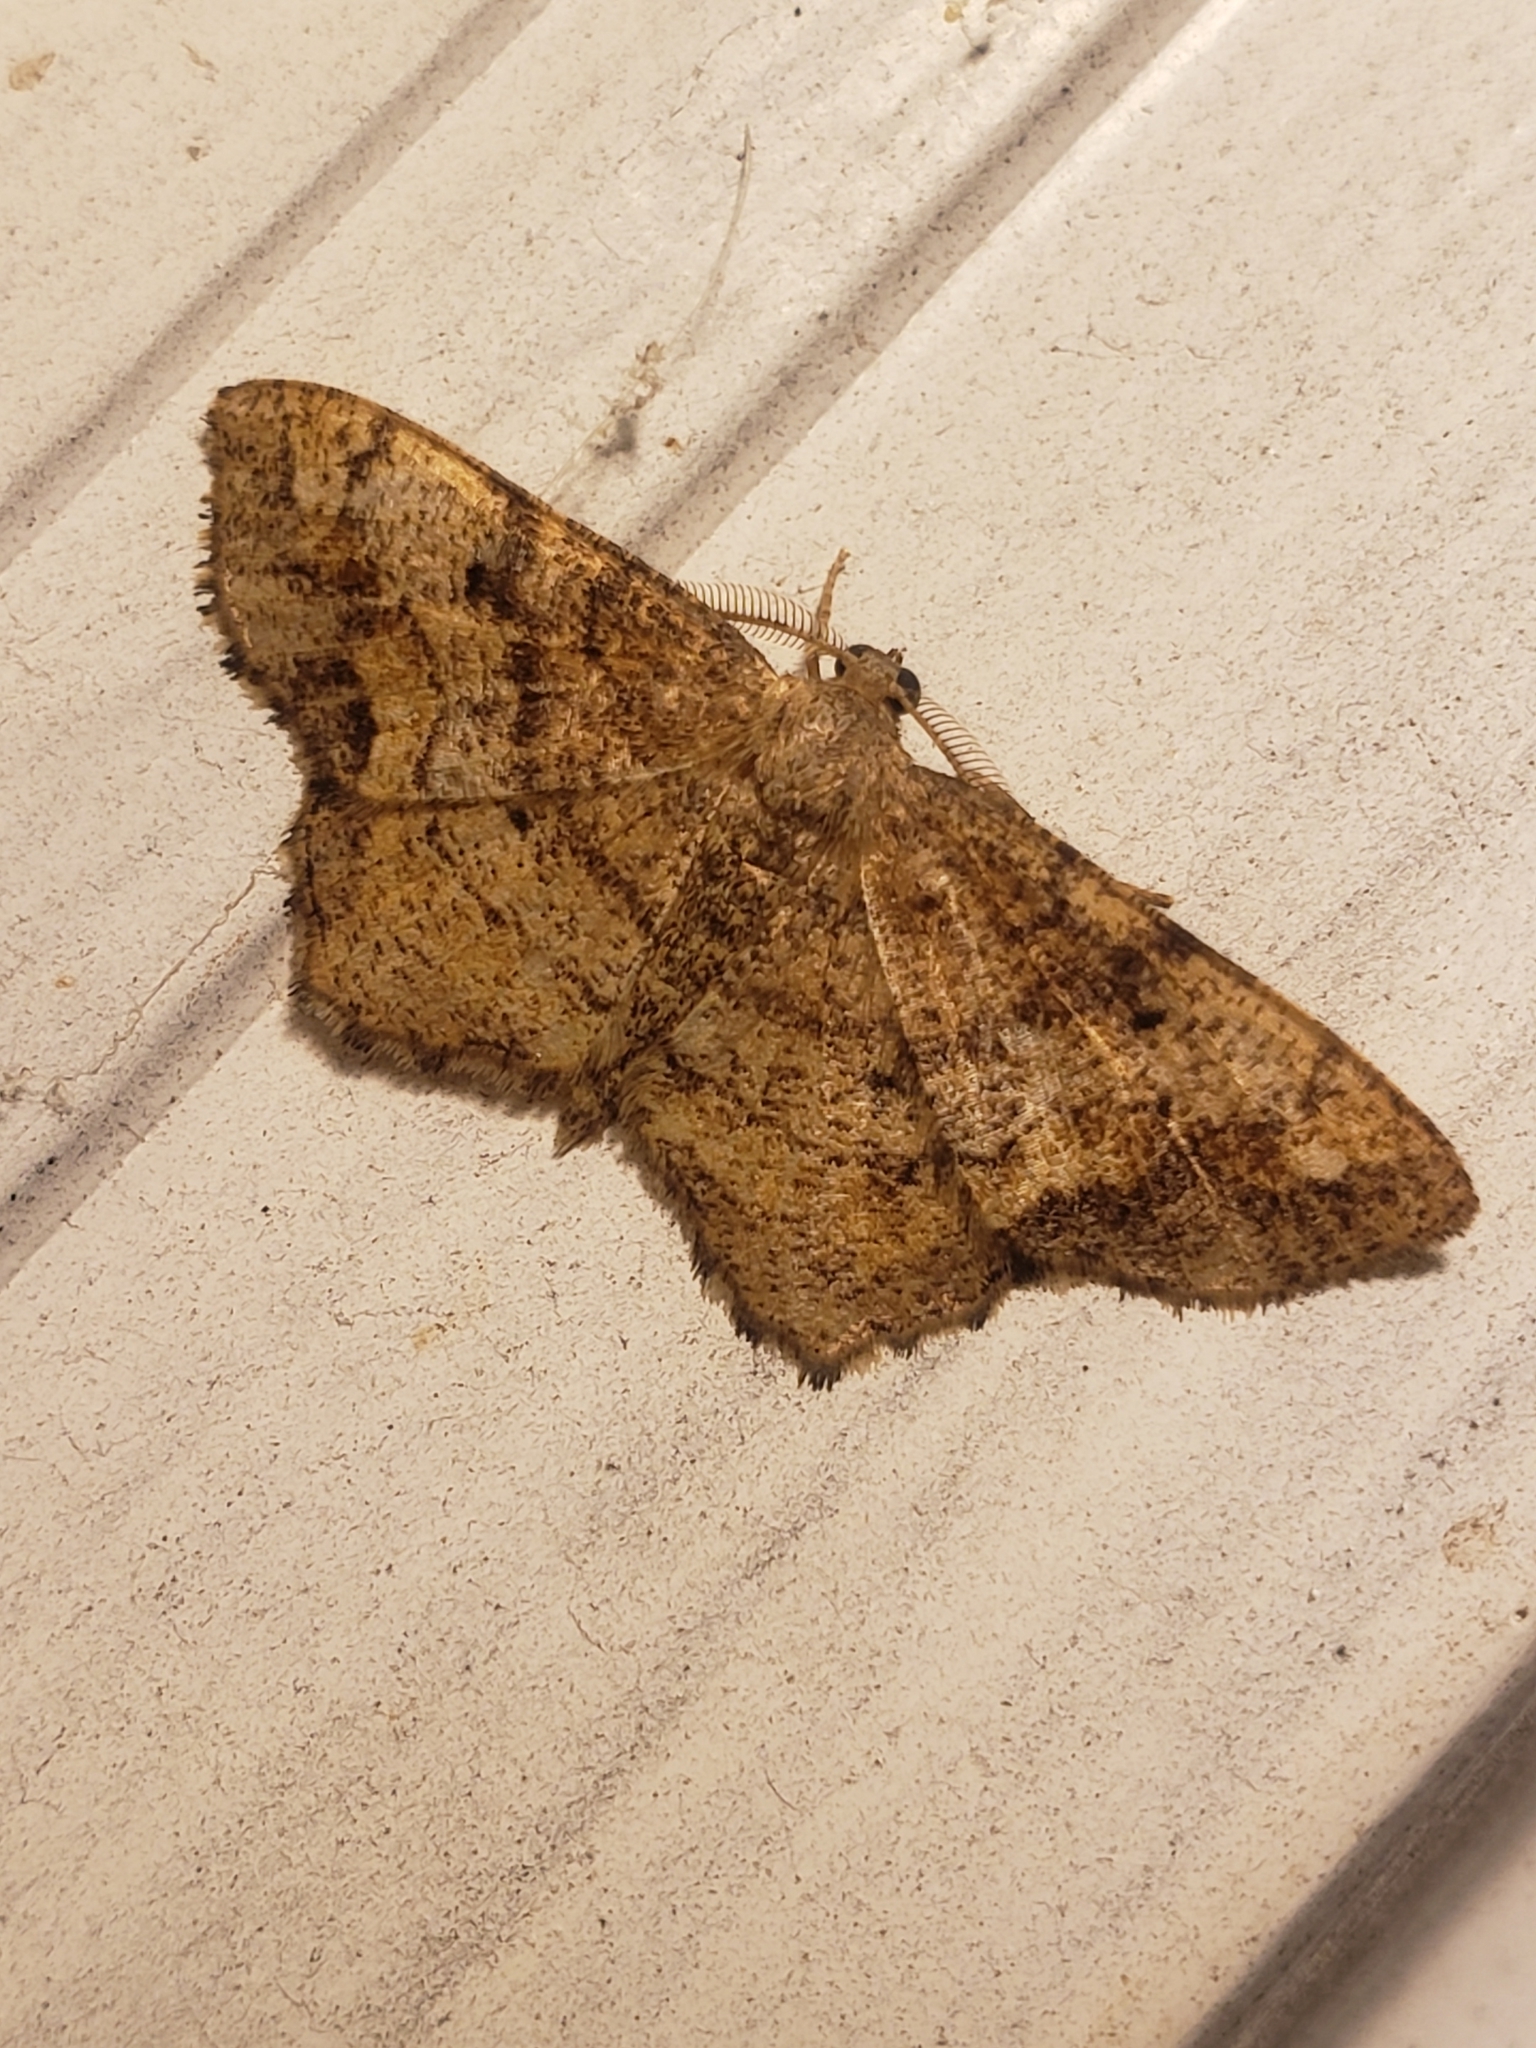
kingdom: Animalia
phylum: Arthropoda
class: Insecta
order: Lepidoptera
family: Geometridae
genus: Hypagyrtis
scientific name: Hypagyrtis unipunctata
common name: One-spotted variant
